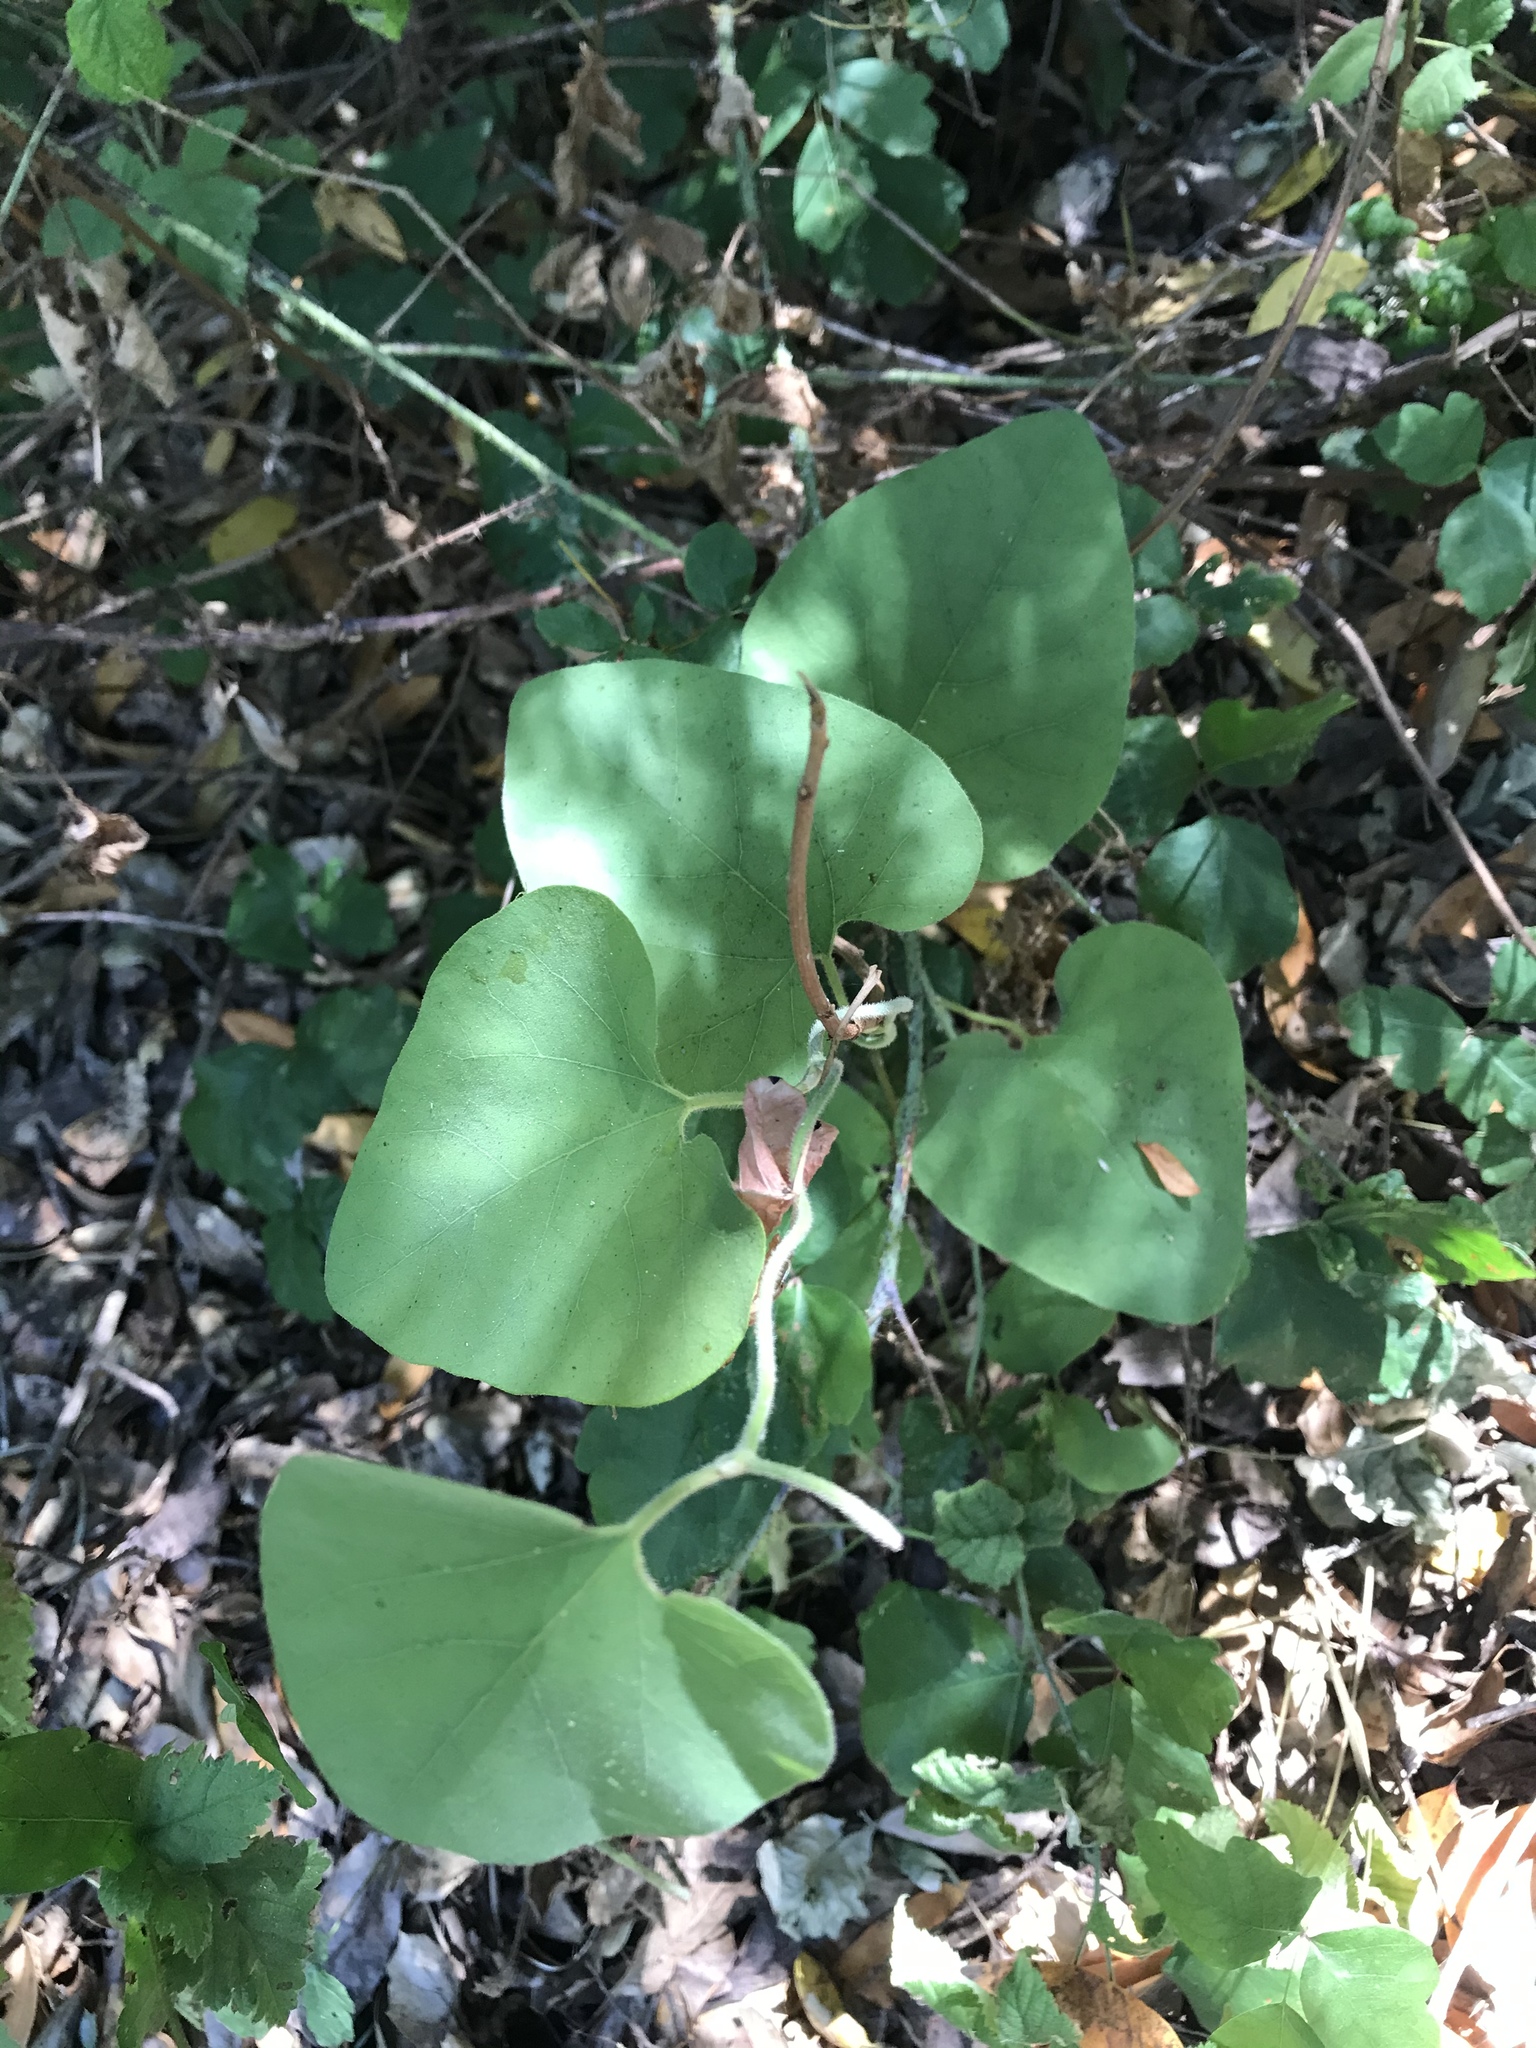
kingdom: Plantae
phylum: Tracheophyta
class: Magnoliopsida
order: Piperales
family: Aristolochiaceae
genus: Isotrema
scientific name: Isotrema californicum
